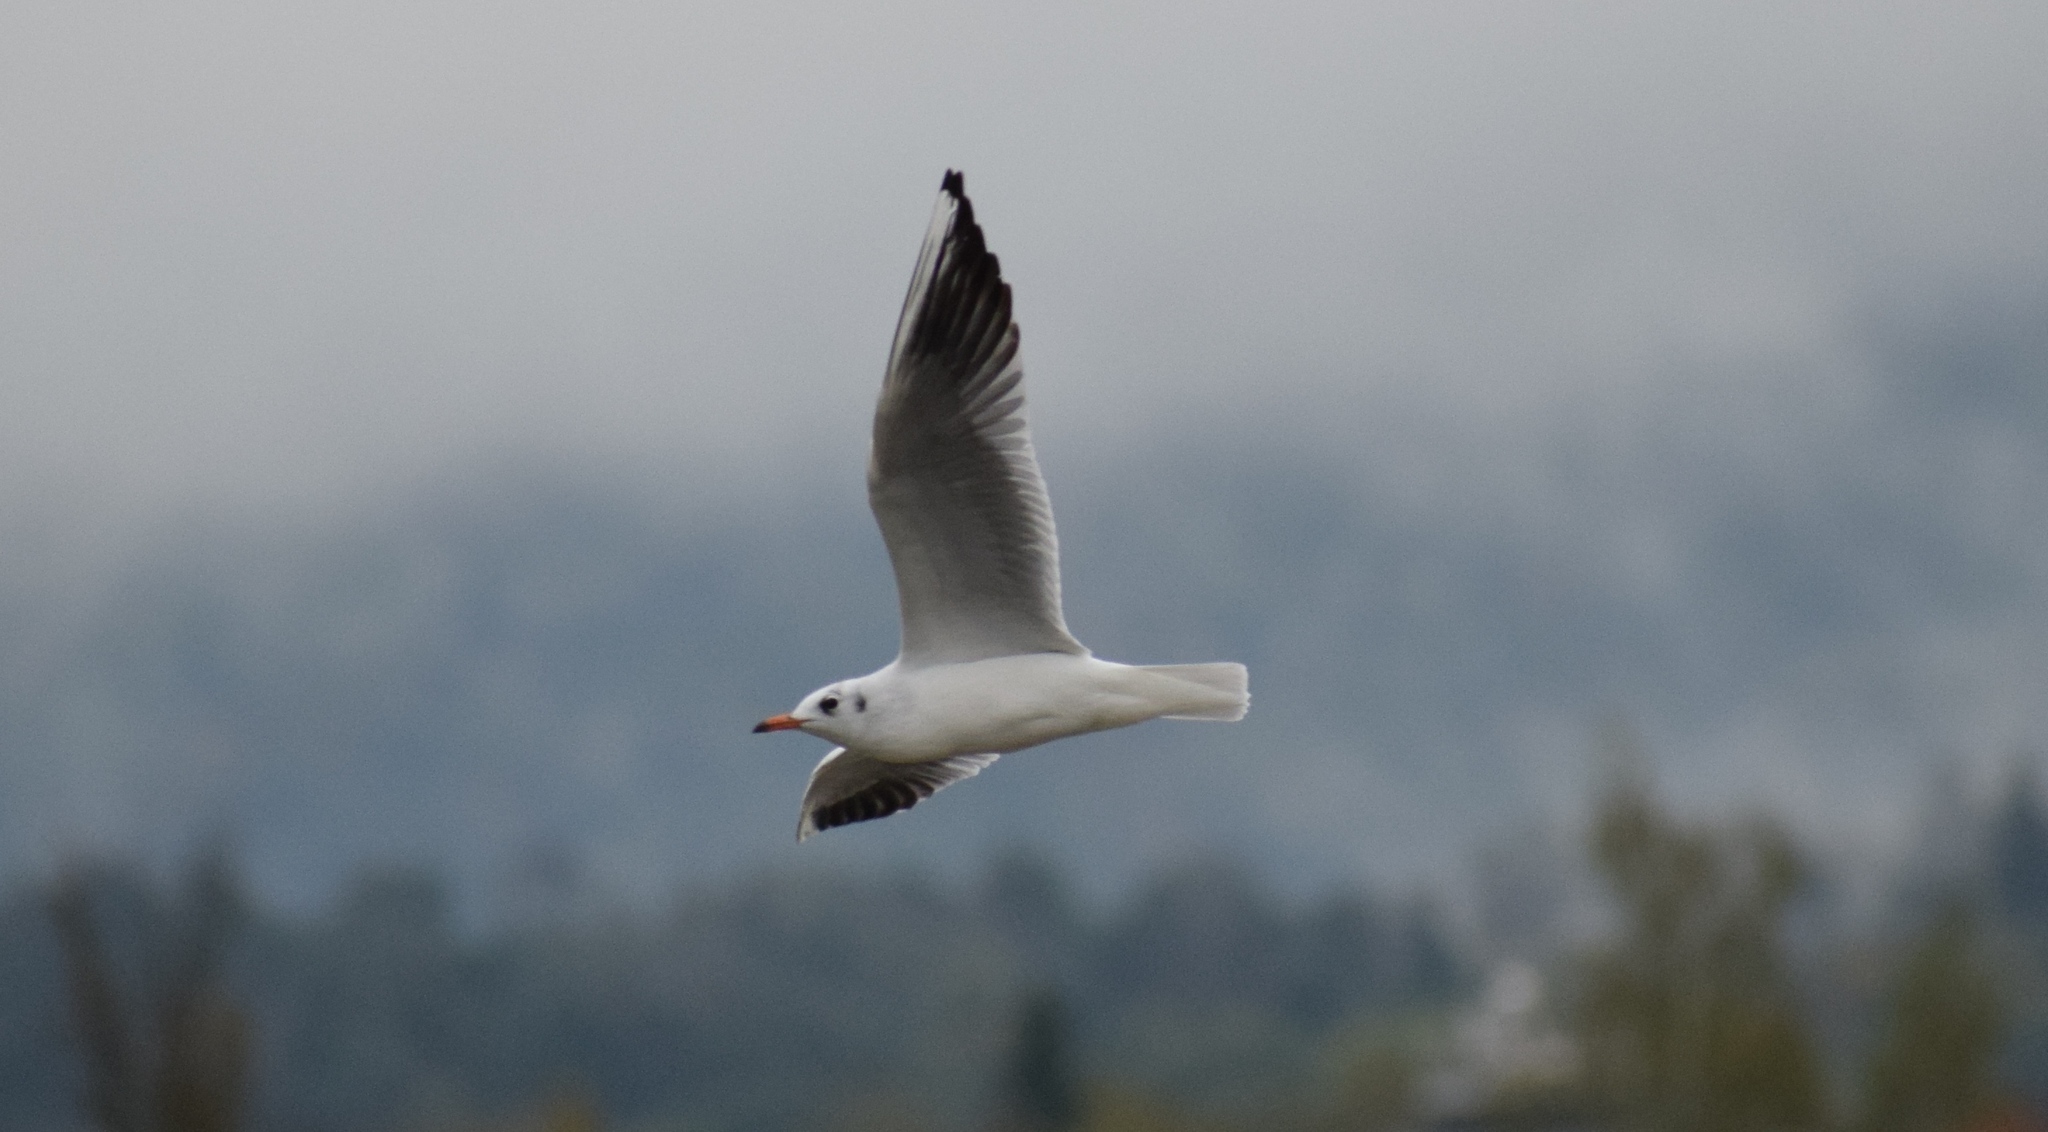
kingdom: Animalia
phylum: Chordata
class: Aves
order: Charadriiformes
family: Laridae
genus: Chroicocephalus
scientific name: Chroicocephalus ridibundus
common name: Black-headed gull
